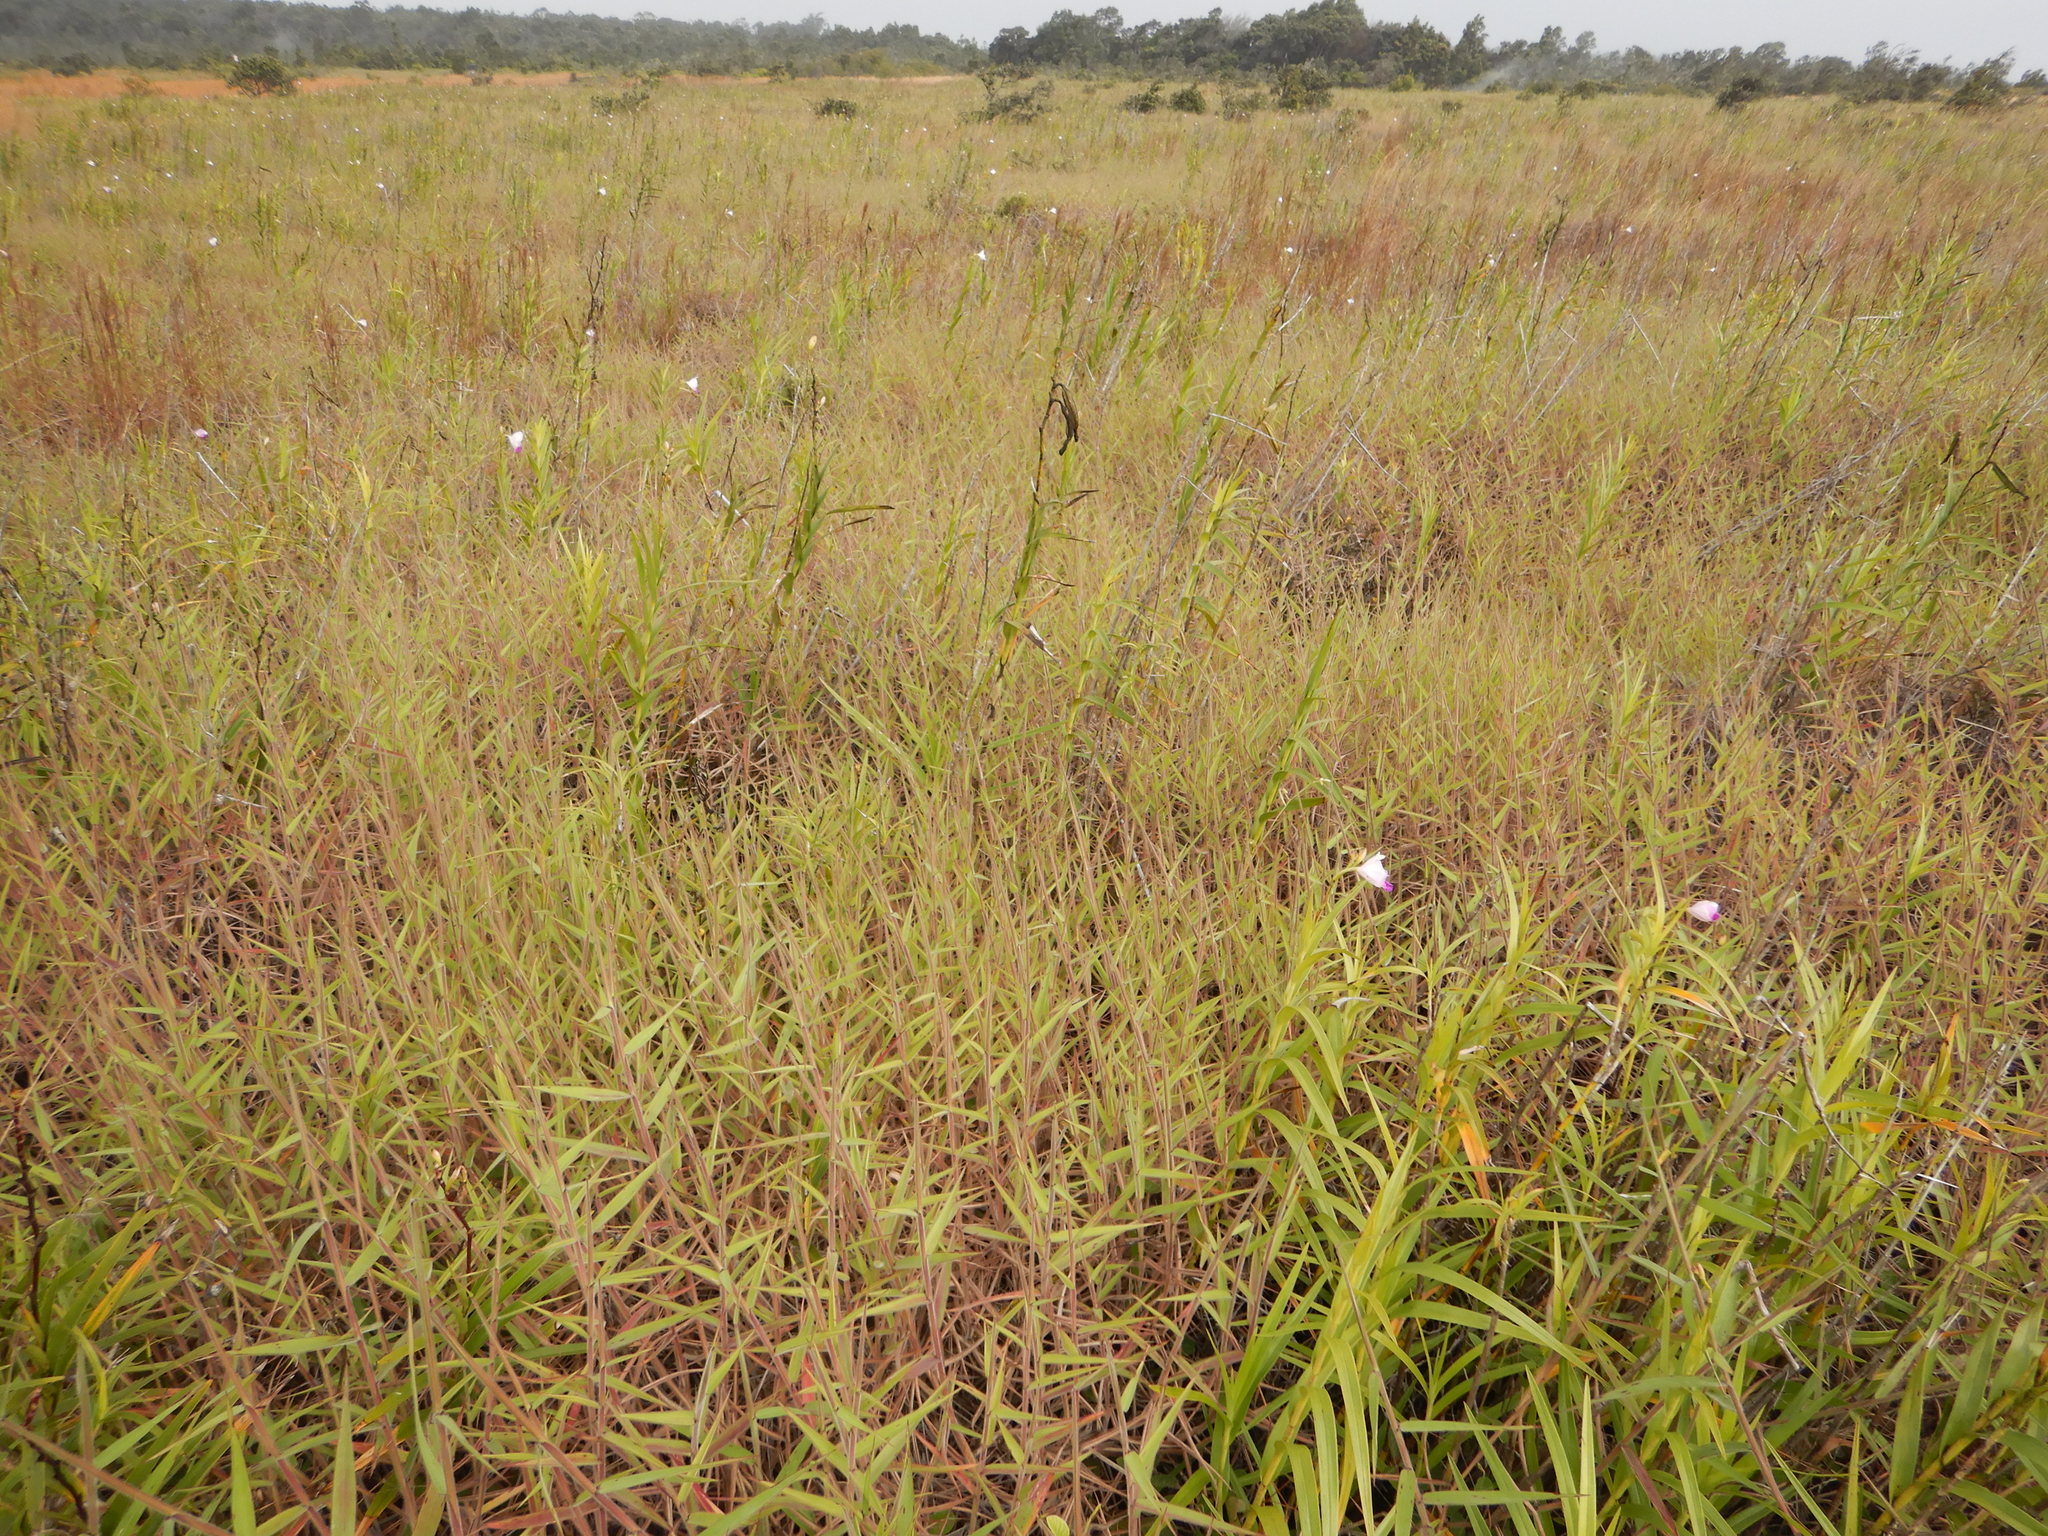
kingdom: Plantae
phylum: Tracheophyta
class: Liliopsida
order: Asparagales
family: Orchidaceae
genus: Arundina
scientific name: Arundina graminifolia
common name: Bamboo orchid
